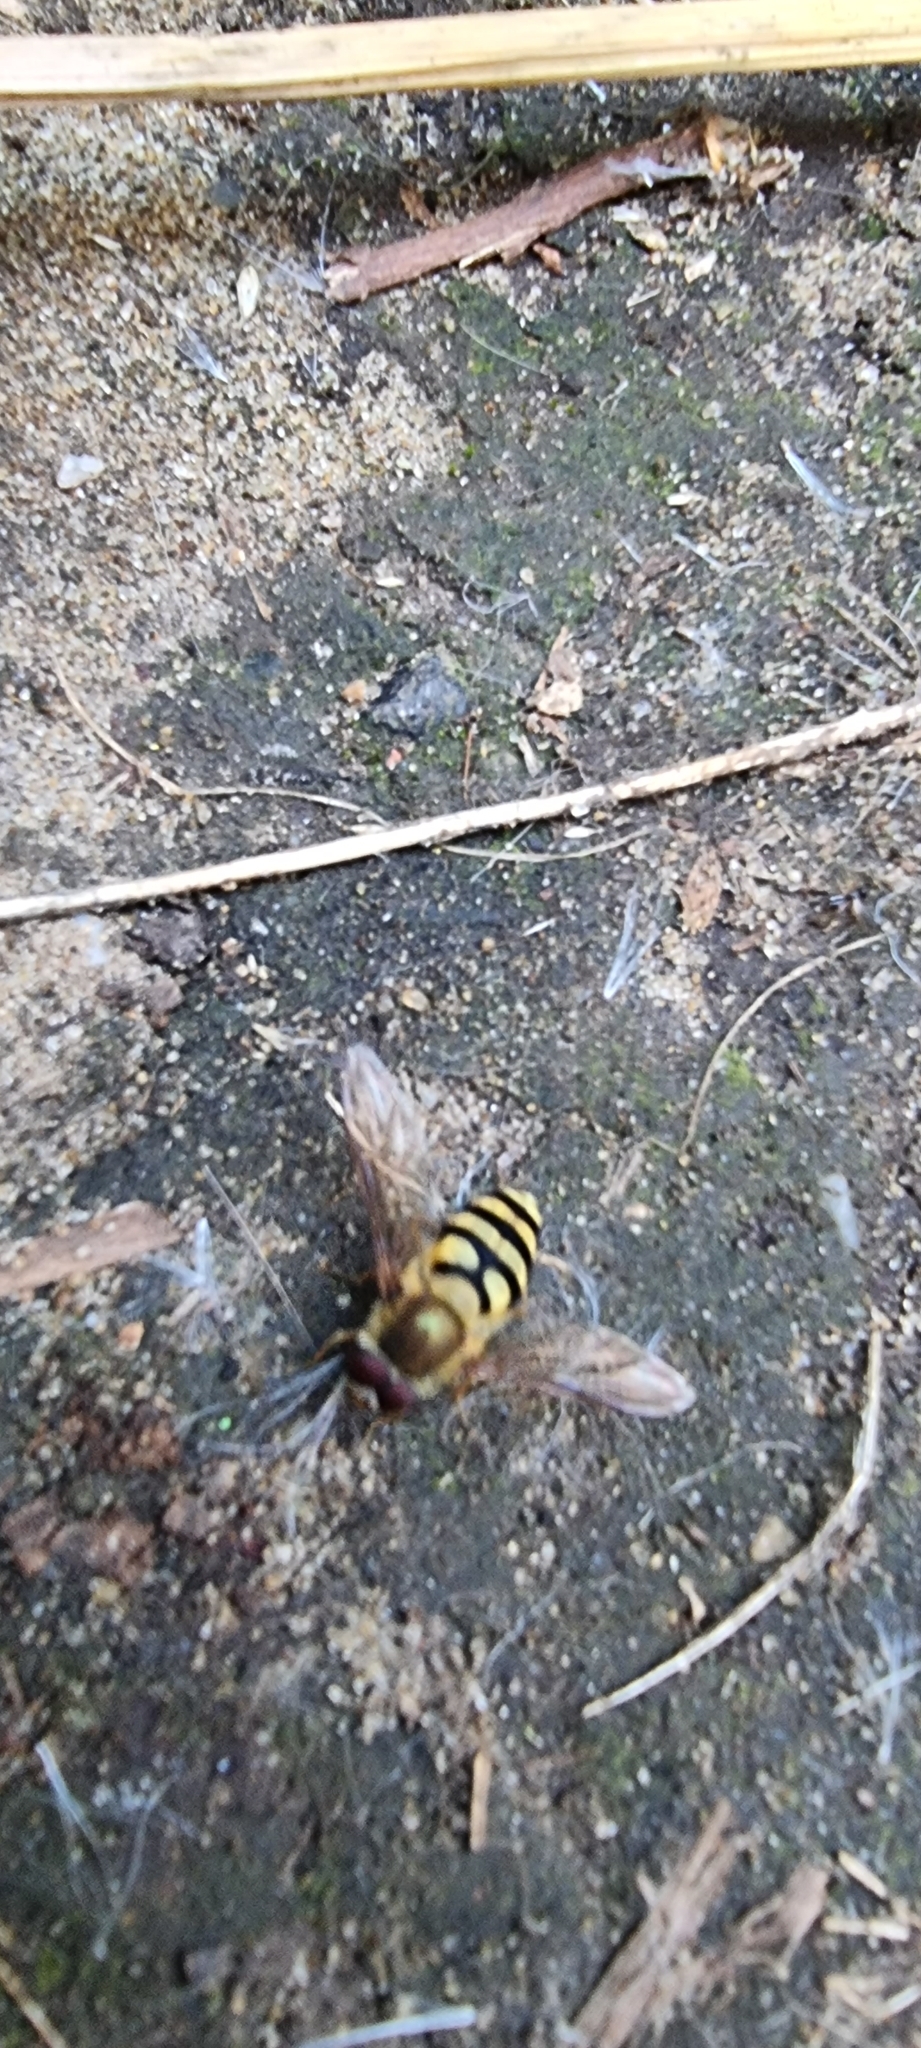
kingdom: Animalia
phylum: Arthropoda
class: Insecta
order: Diptera
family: Syrphidae
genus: Syrphus
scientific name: Syrphus
